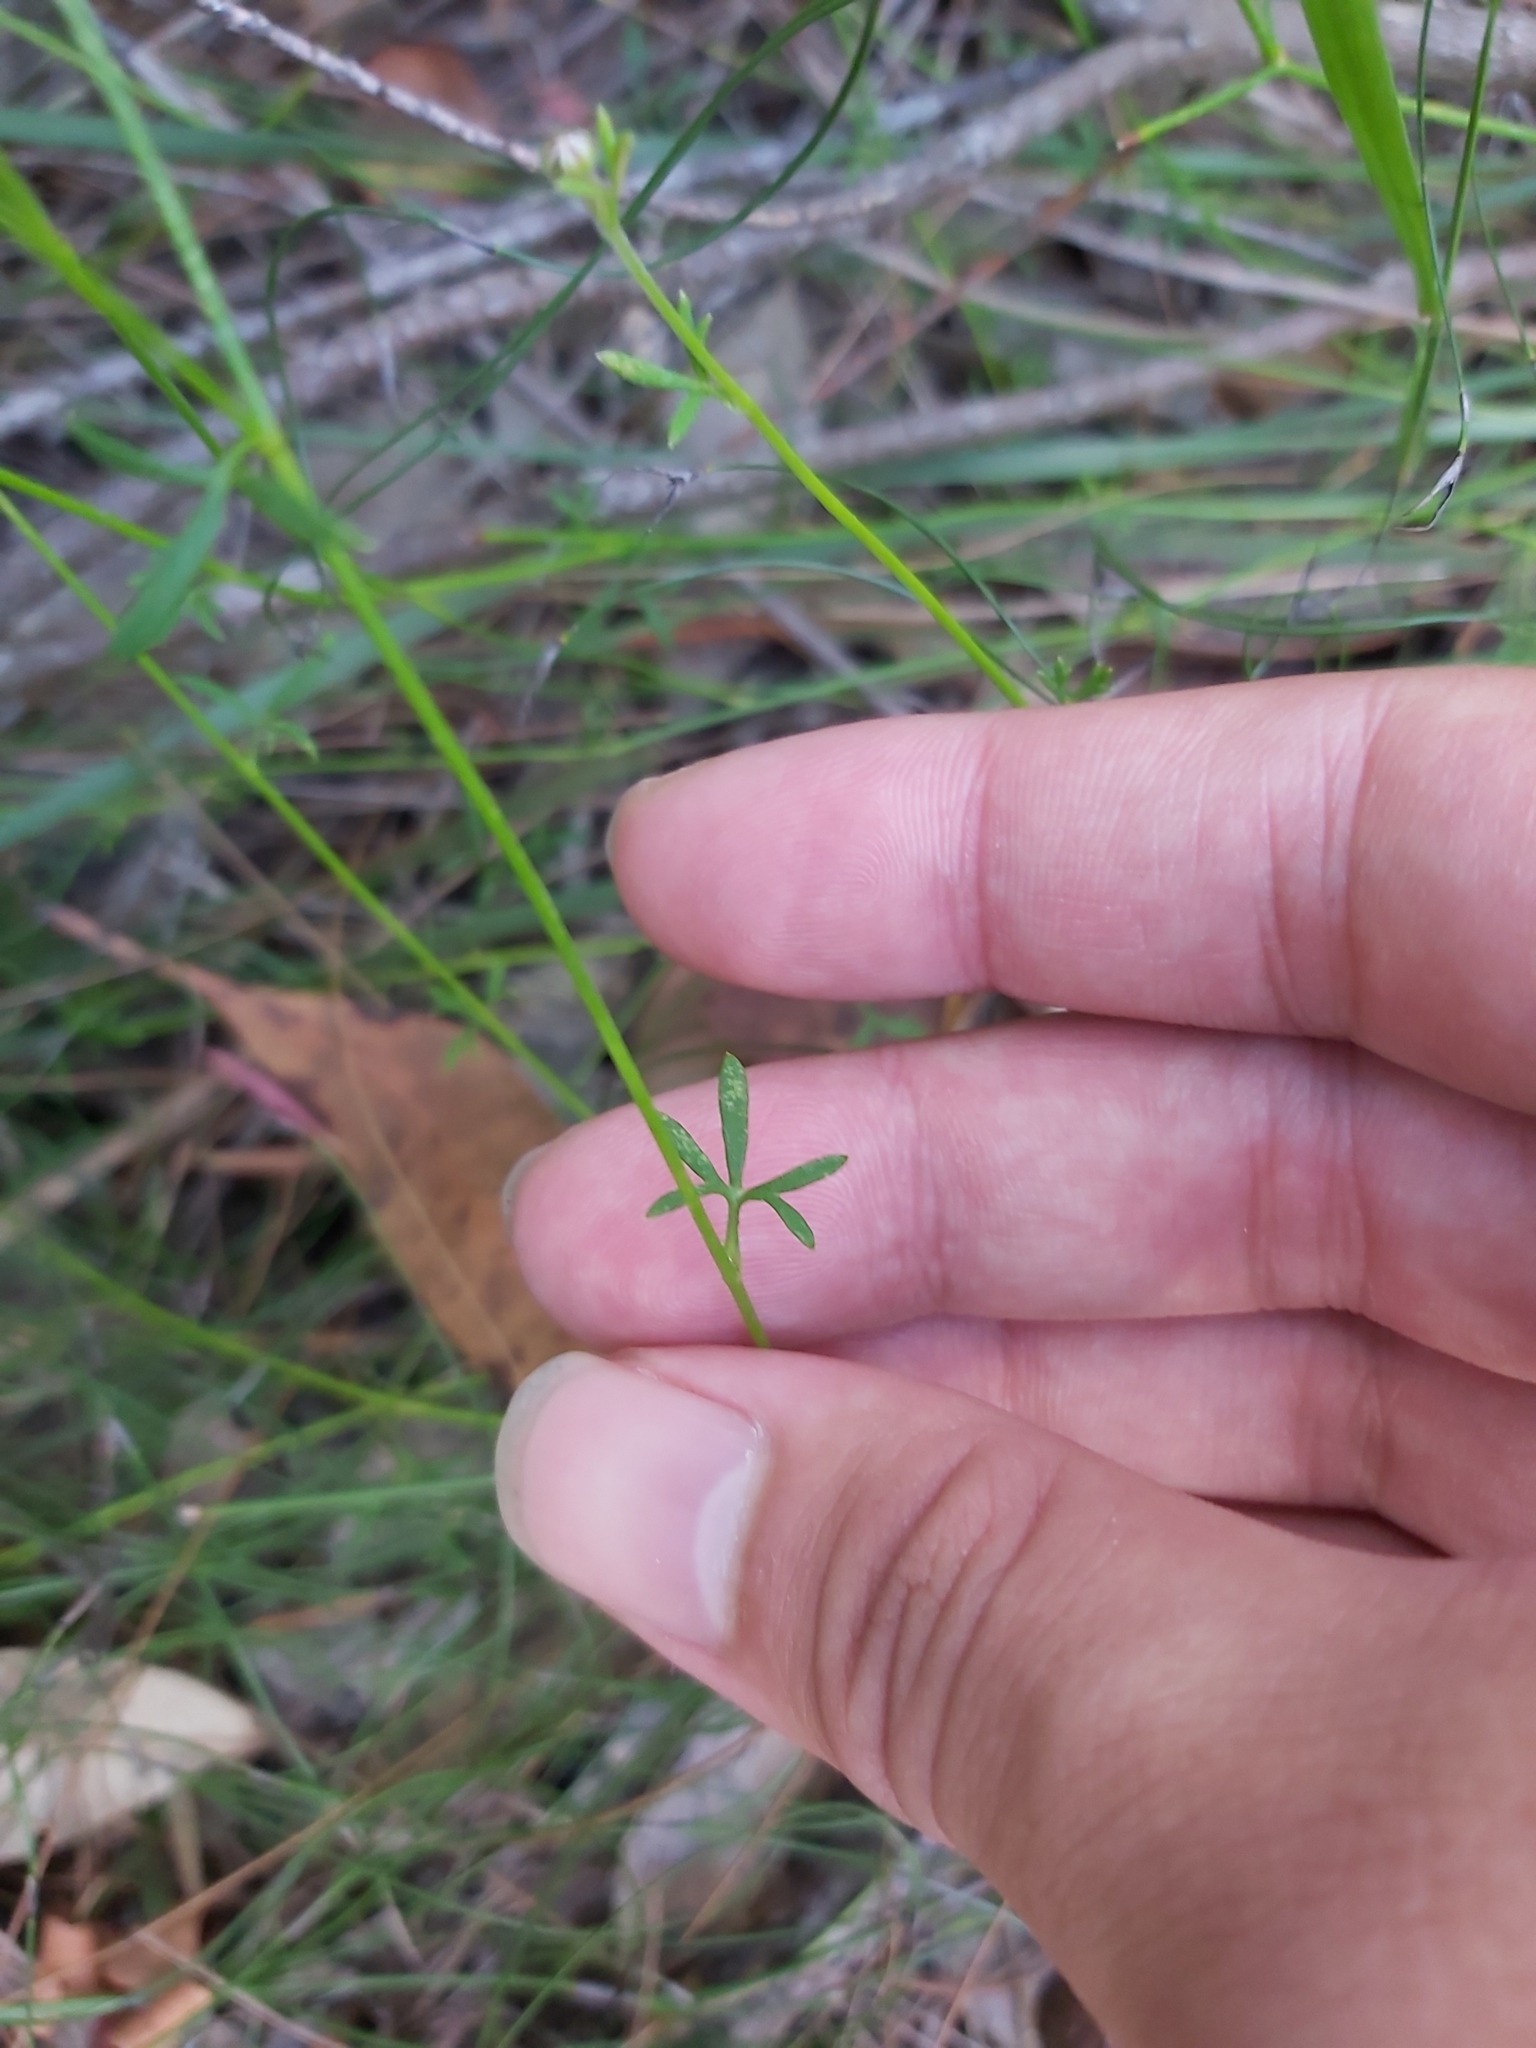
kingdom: Plantae
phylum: Tracheophyta
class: Magnoliopsida
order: Apiales
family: Apiaceae
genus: Actinotus
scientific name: Actinotus minor
